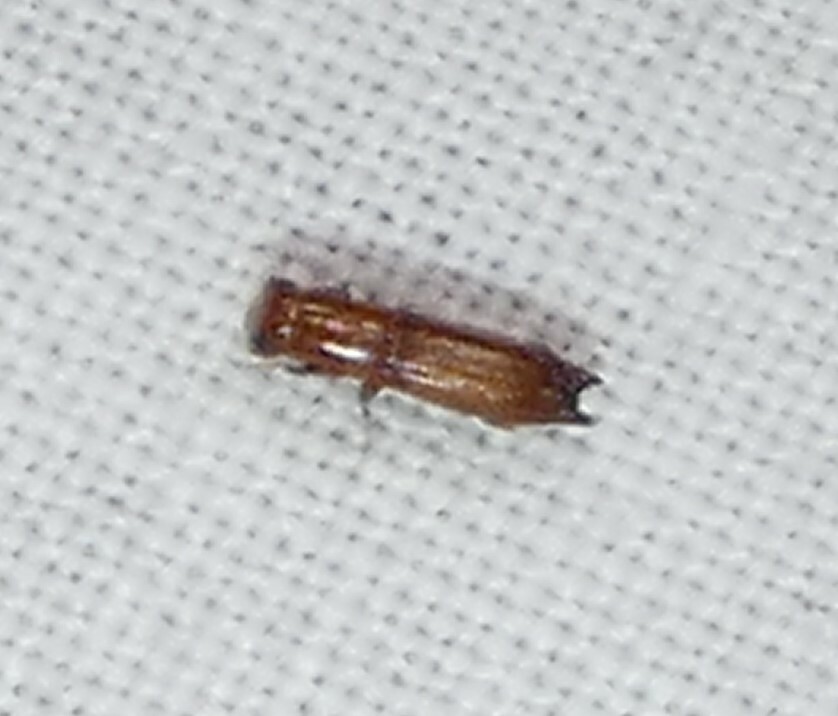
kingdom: Animalia
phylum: Arthropoda
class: Insecta
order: Coleoptera
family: Curculionidae
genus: Euplatypus
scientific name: Euplatypus compositus
